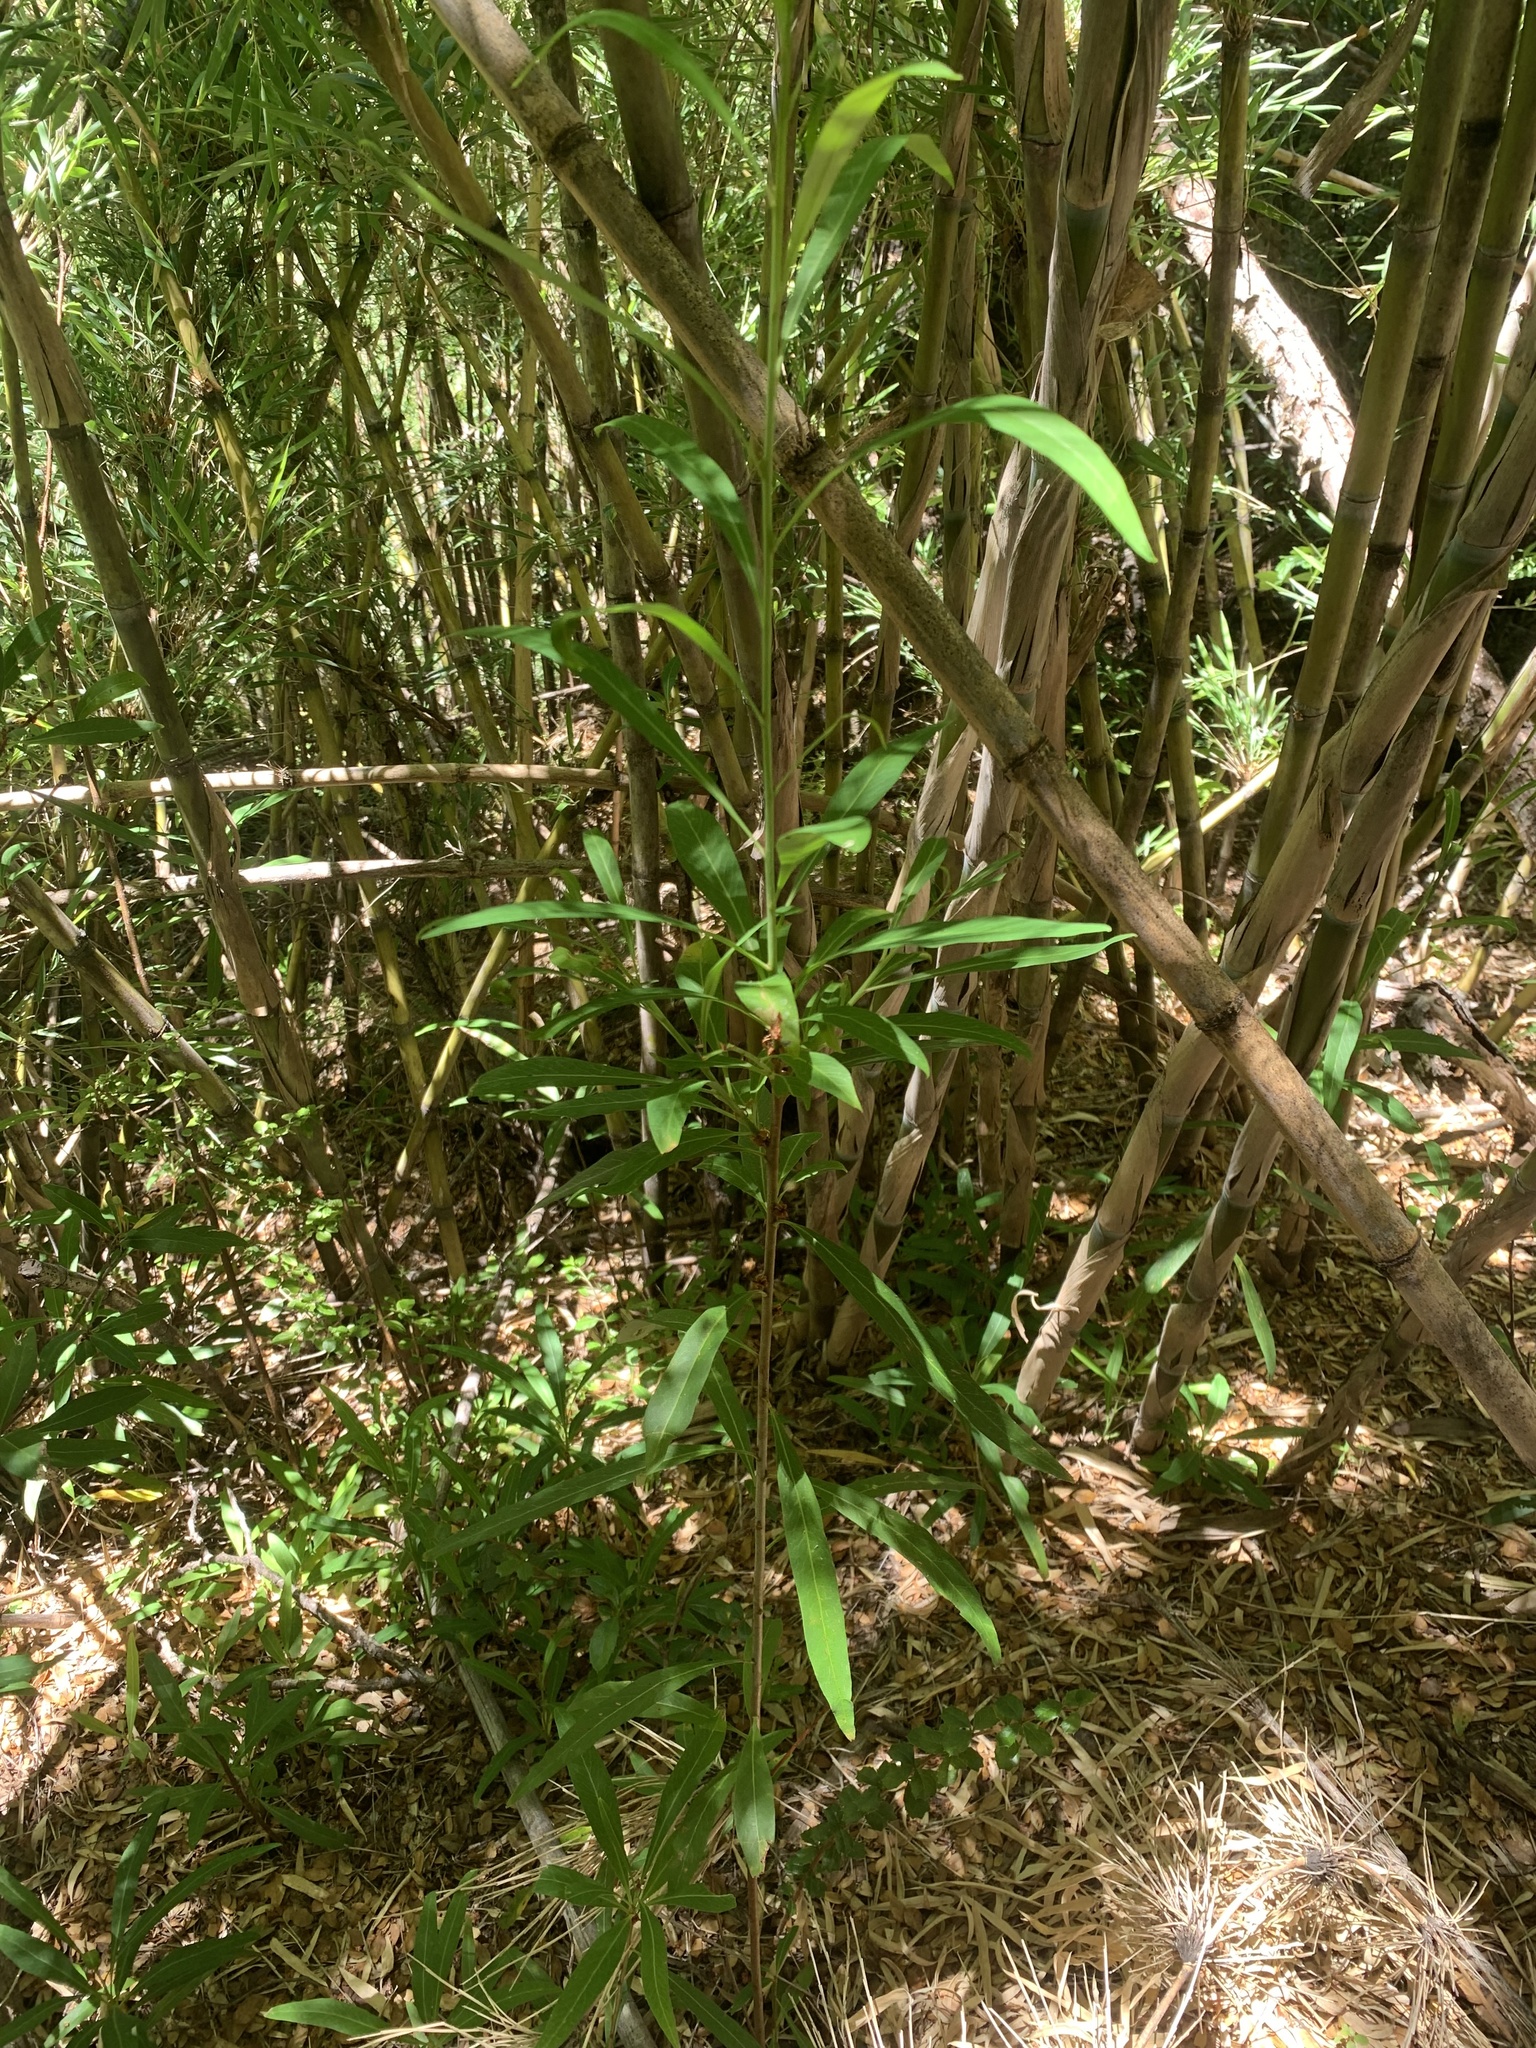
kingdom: Plantae
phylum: Tracheophyta
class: Liliopsida
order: Poales
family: Poaceae
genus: Chusquea
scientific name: Chusquea culeou
